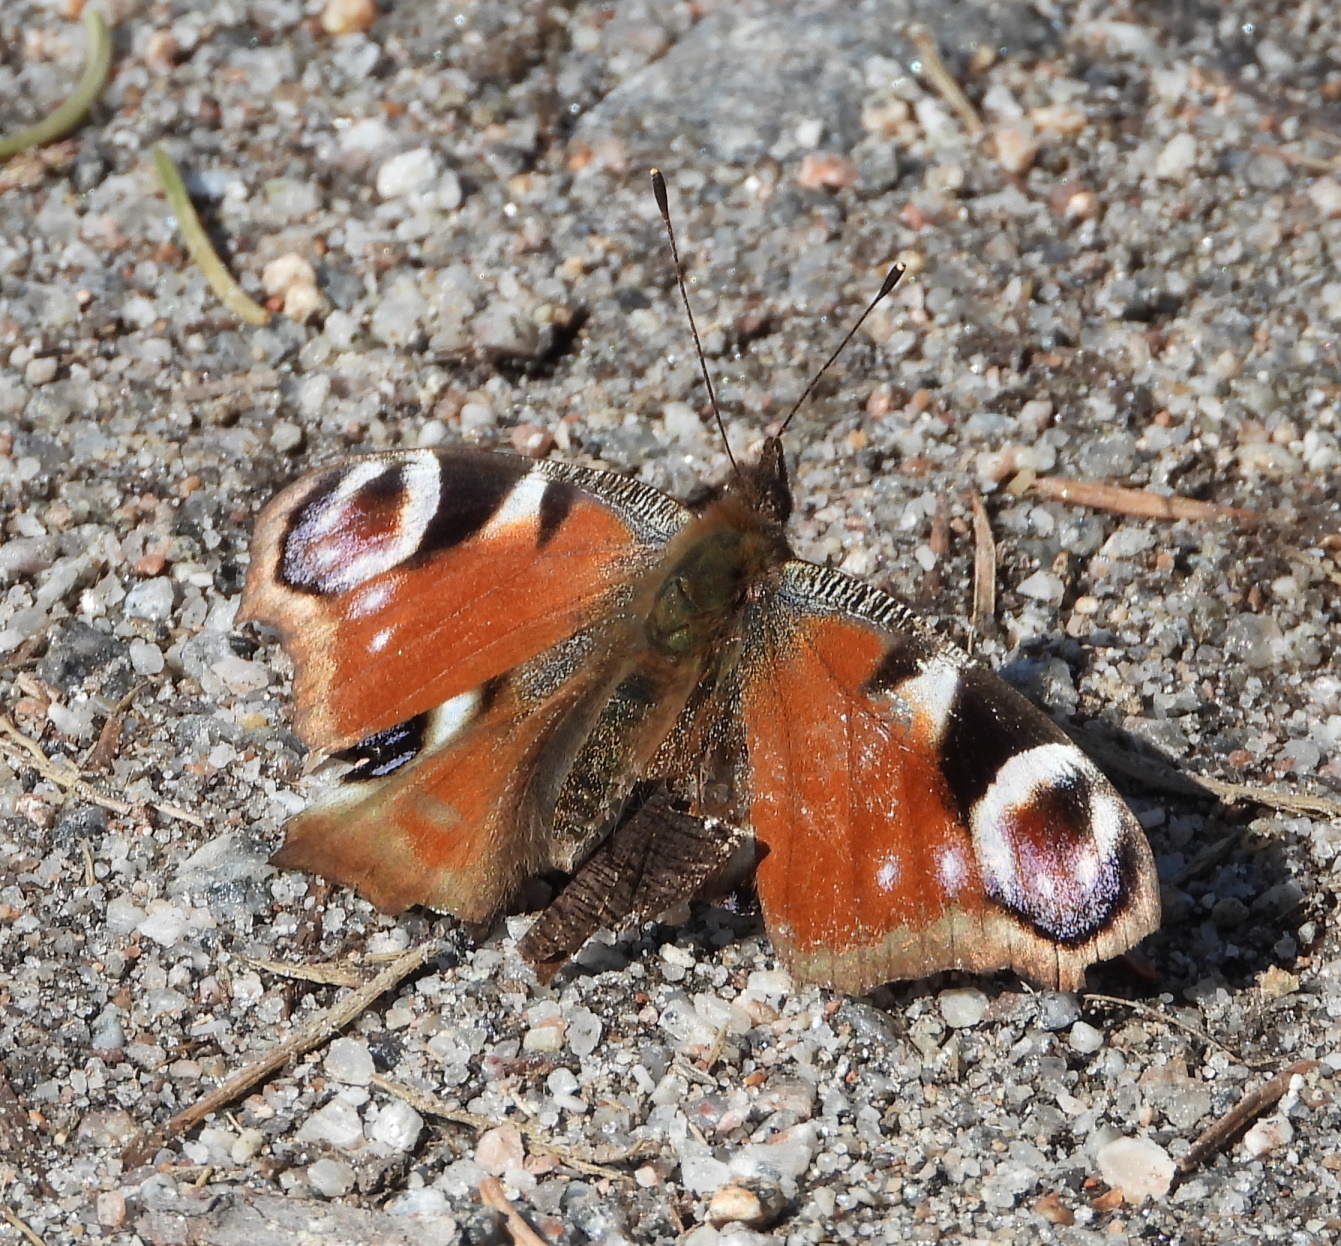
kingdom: Animalia
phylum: Arthropoda
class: Insecta
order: Lepidoptera
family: Nymphalidae
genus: Aglais
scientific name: Aglais io
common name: Peacock
